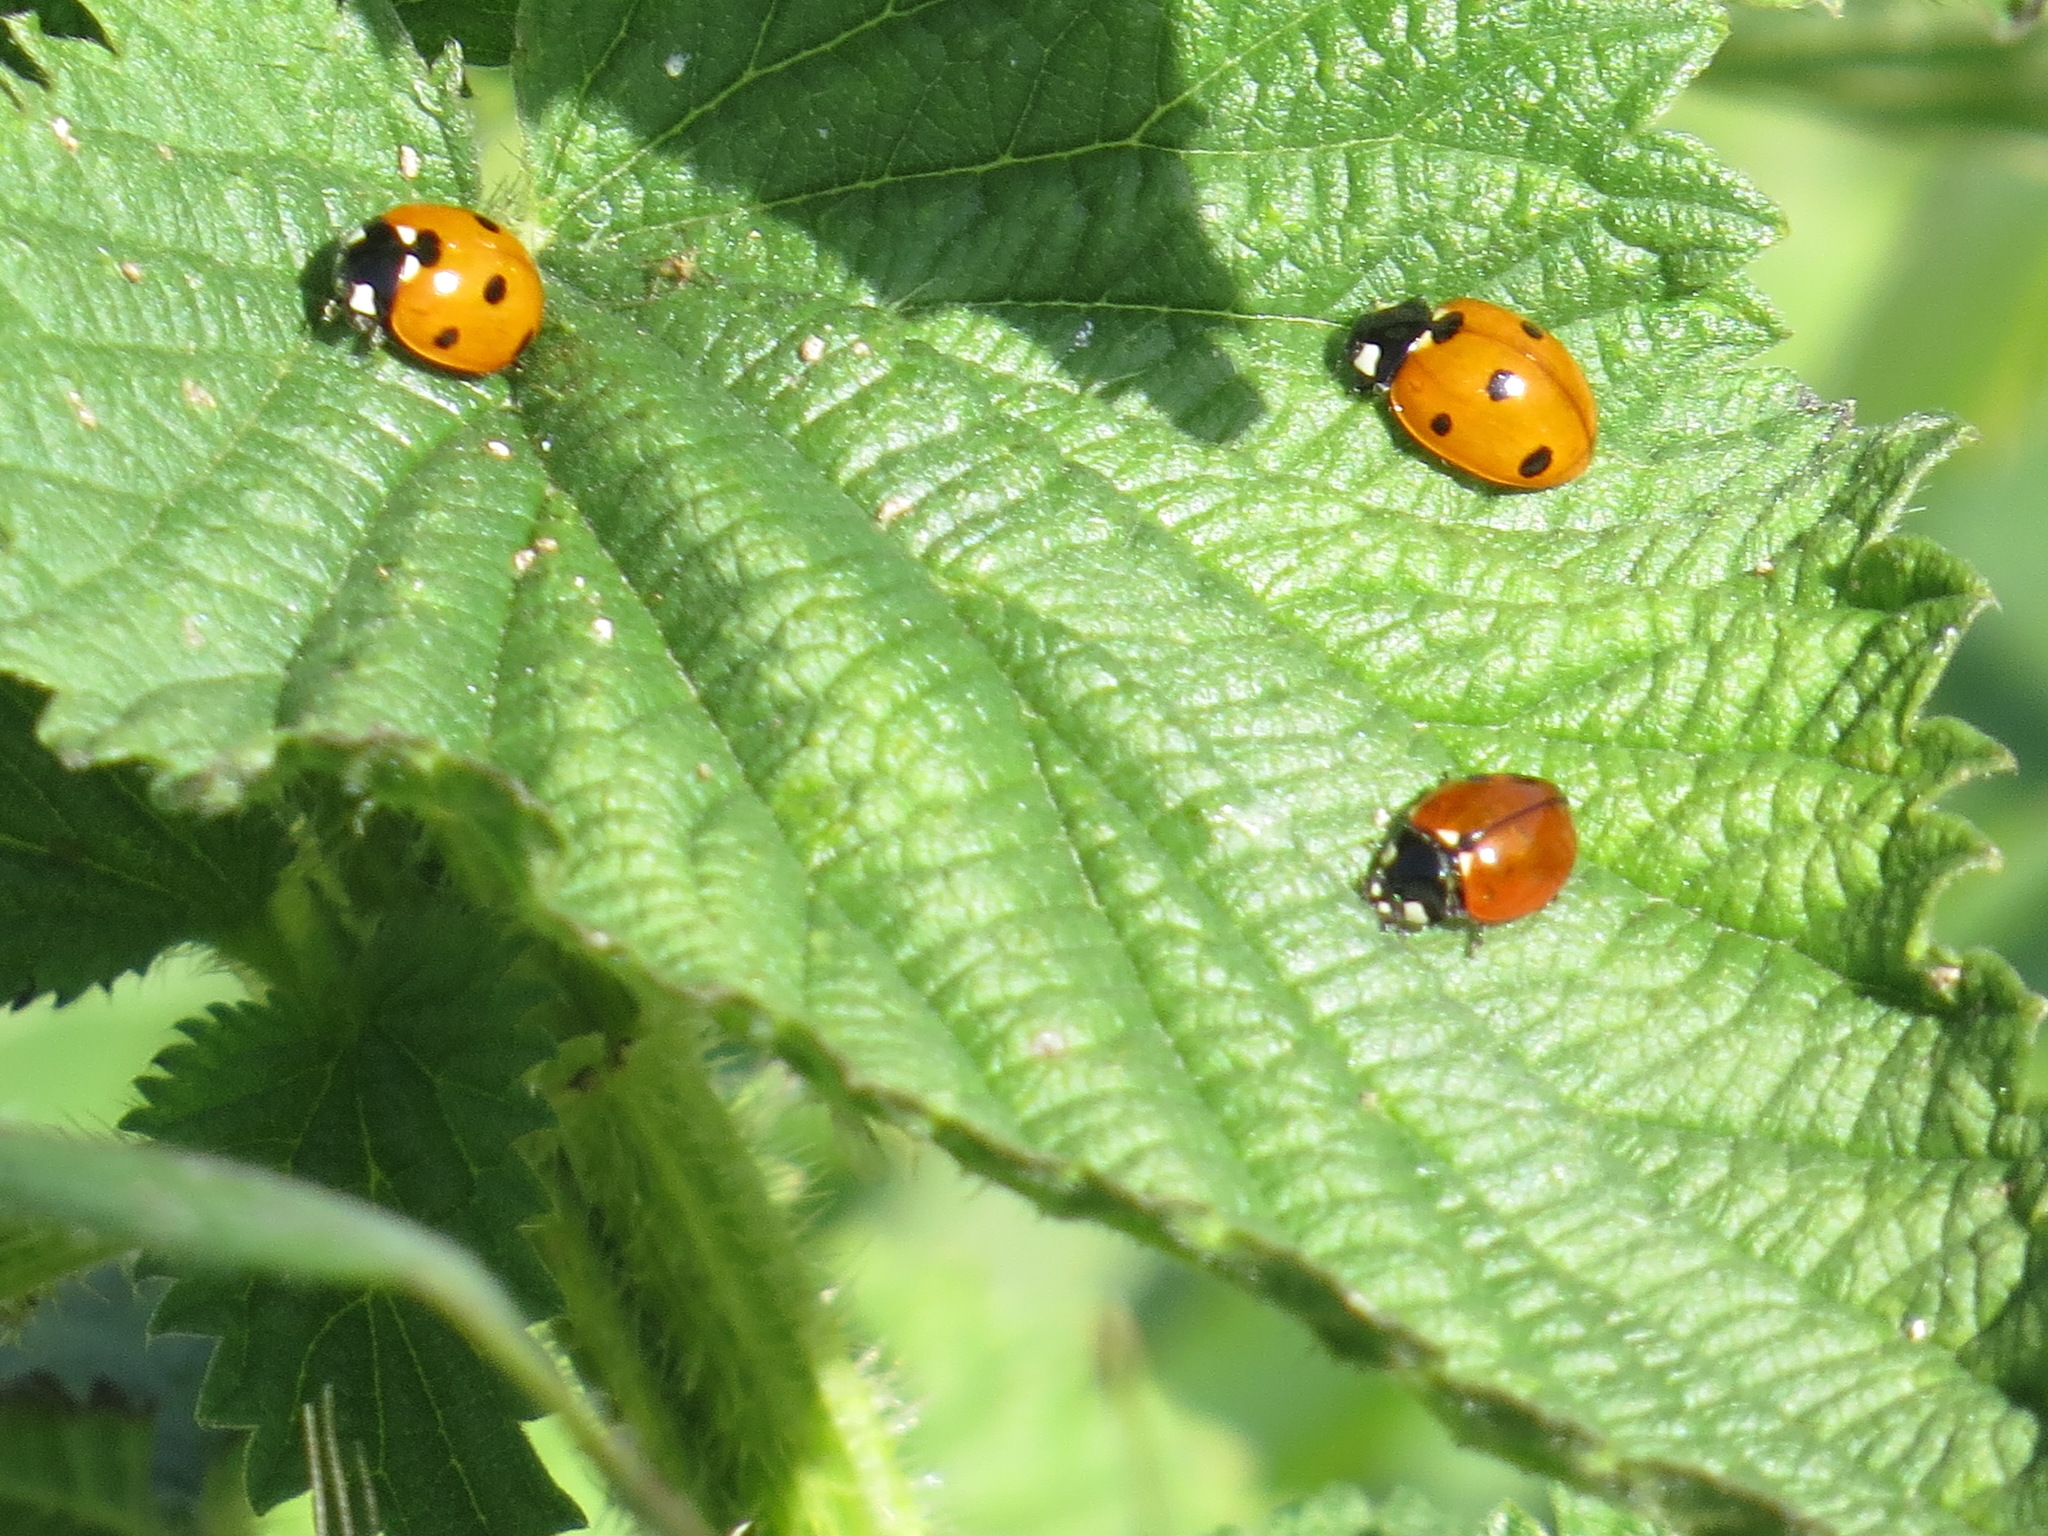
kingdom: Animalia
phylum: Arthropoda
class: Insecta
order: Coleoptera
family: Coccinellidae
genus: Coccinella
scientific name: Coccinella septempunctata
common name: Sevenspotted lady beetle
